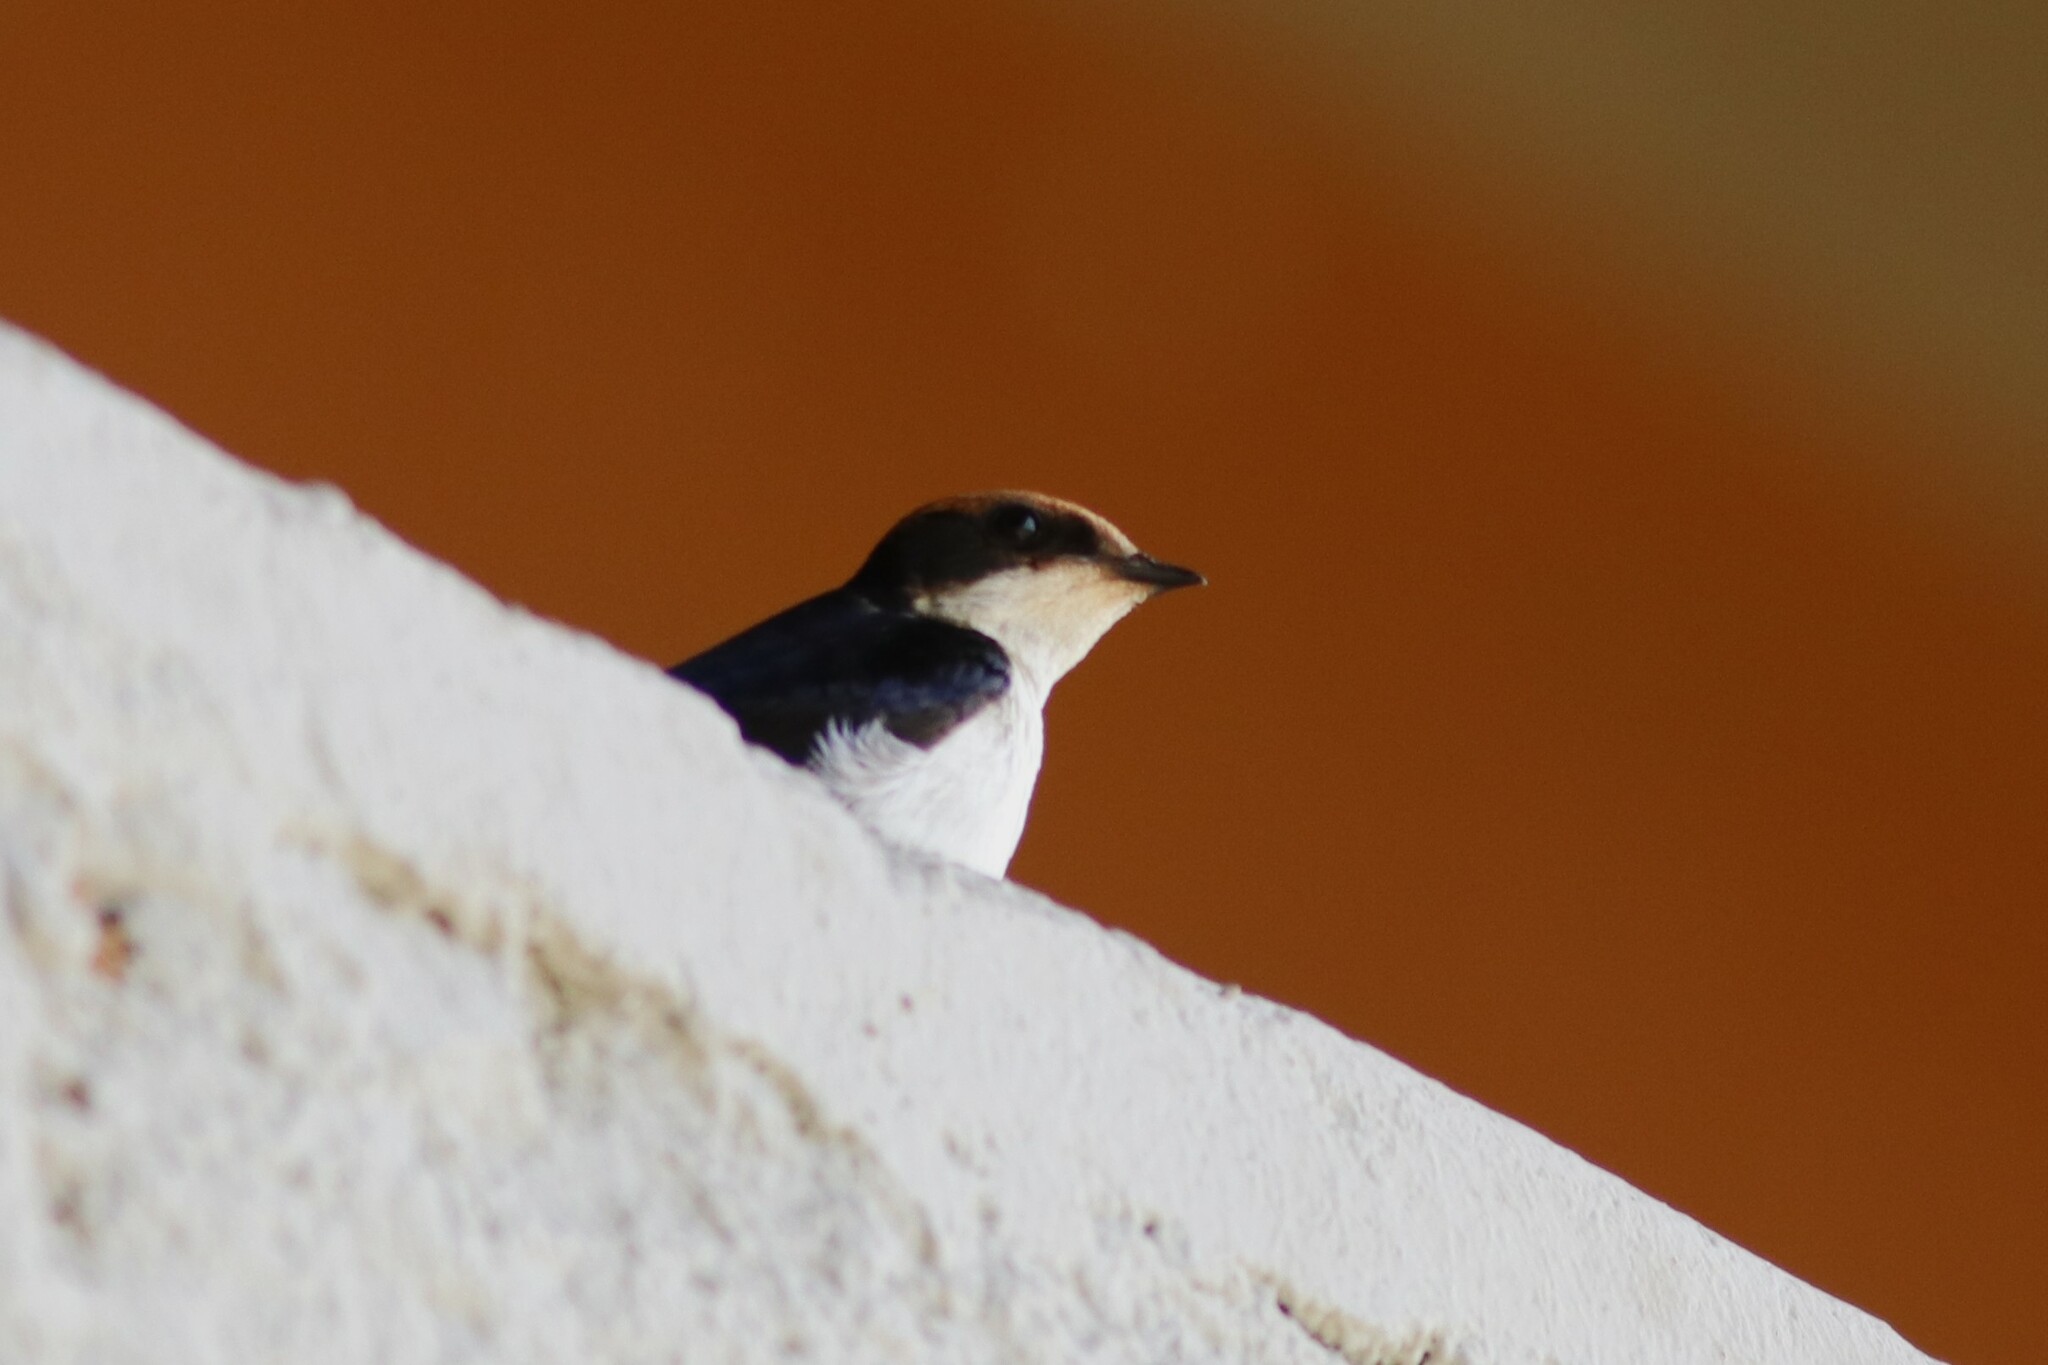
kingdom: Animalia
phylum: Chordata
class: Aves
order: Passeriformes
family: Hirundinidae
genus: Hirundo
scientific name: Hirundo smithii
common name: Wire-tailed swallow
